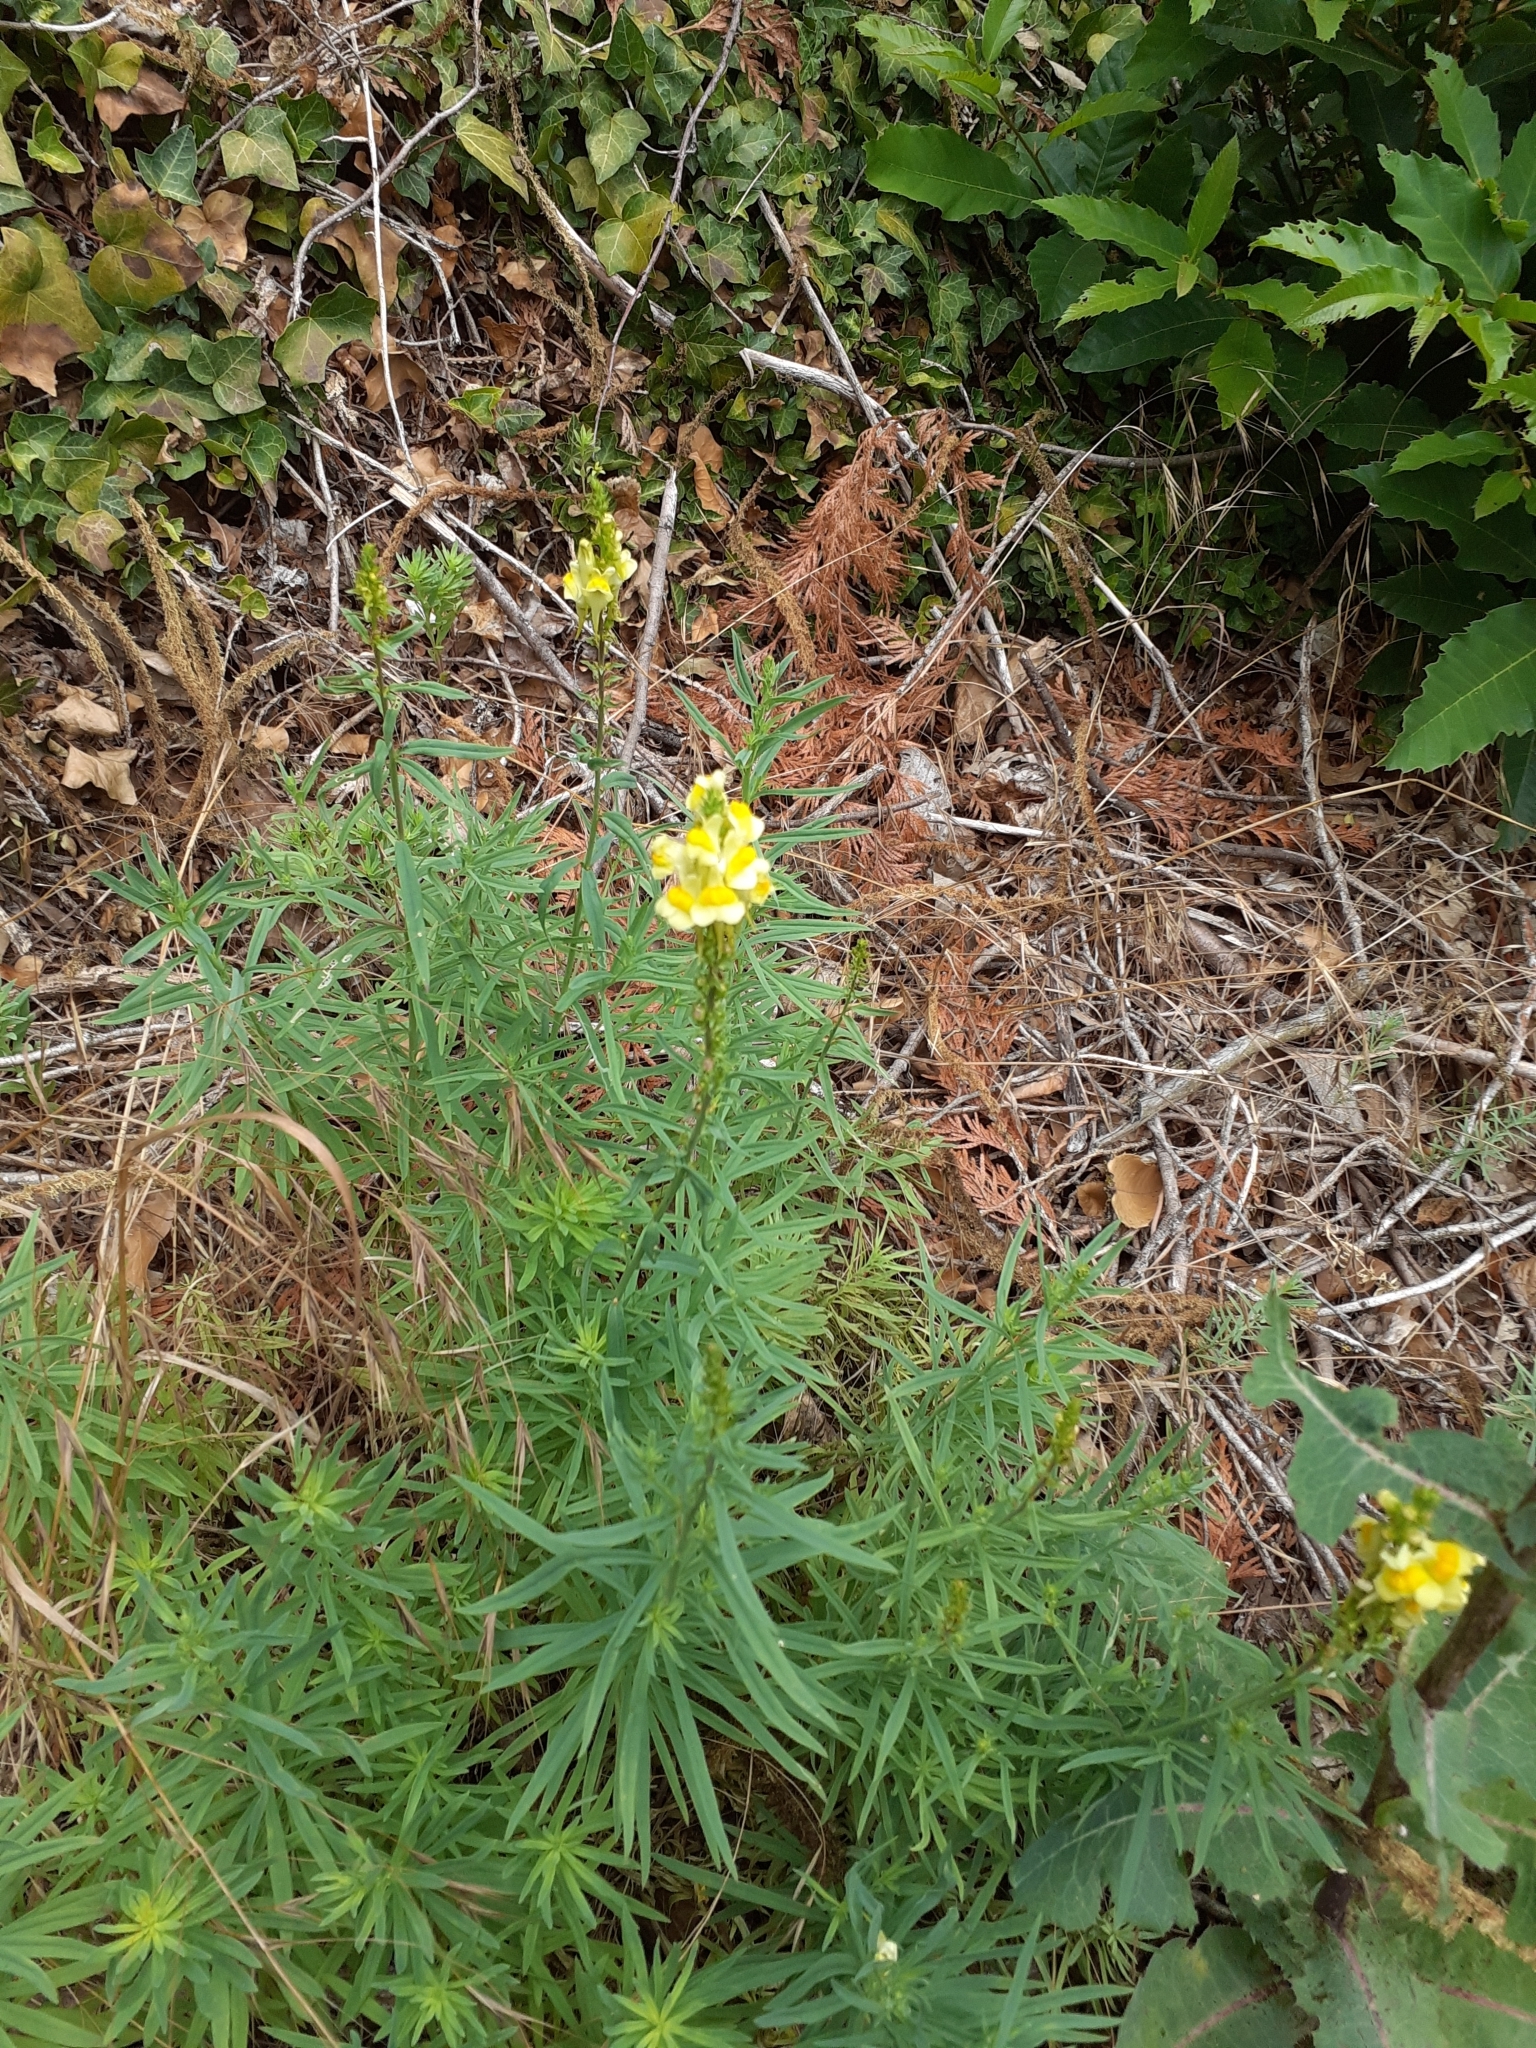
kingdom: Plantae
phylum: Tracheophyta
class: Magnoliopsida
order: Lamiales
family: Plantaginaceae
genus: Linaria
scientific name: Linaria vulgaris
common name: Butter and eggs
